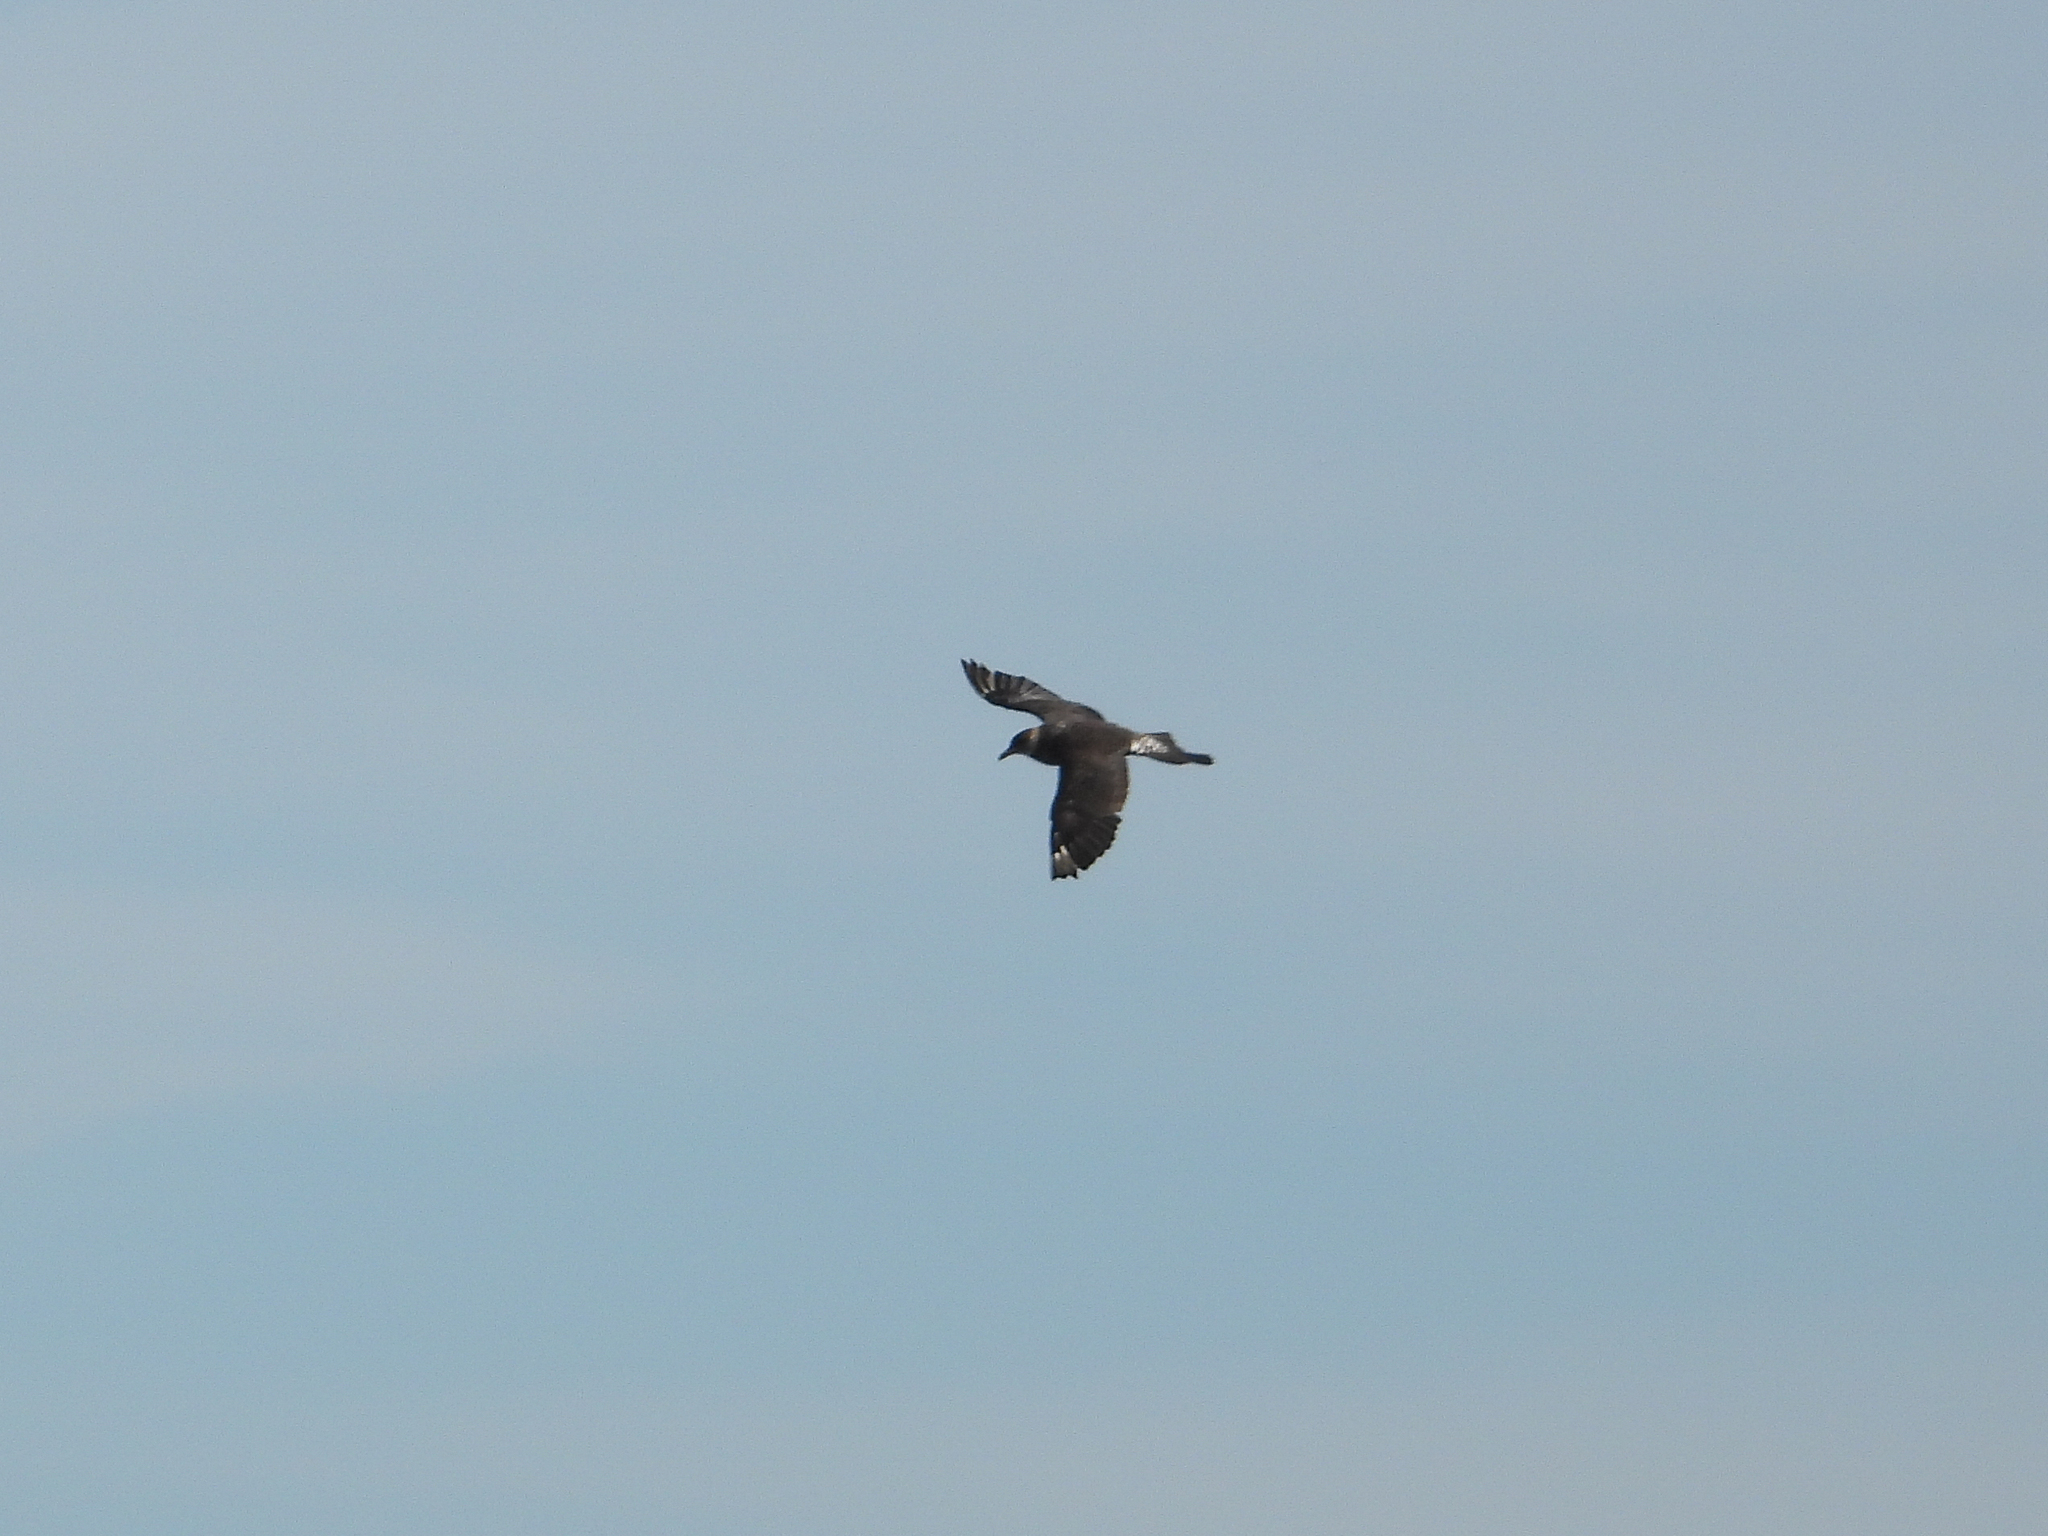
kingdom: Animalia
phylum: Chordata
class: Aves
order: Charadriiformes
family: Stercorariidae
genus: Stercorarius
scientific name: Stercorarius pomarinus
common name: Pomarine jaeger
